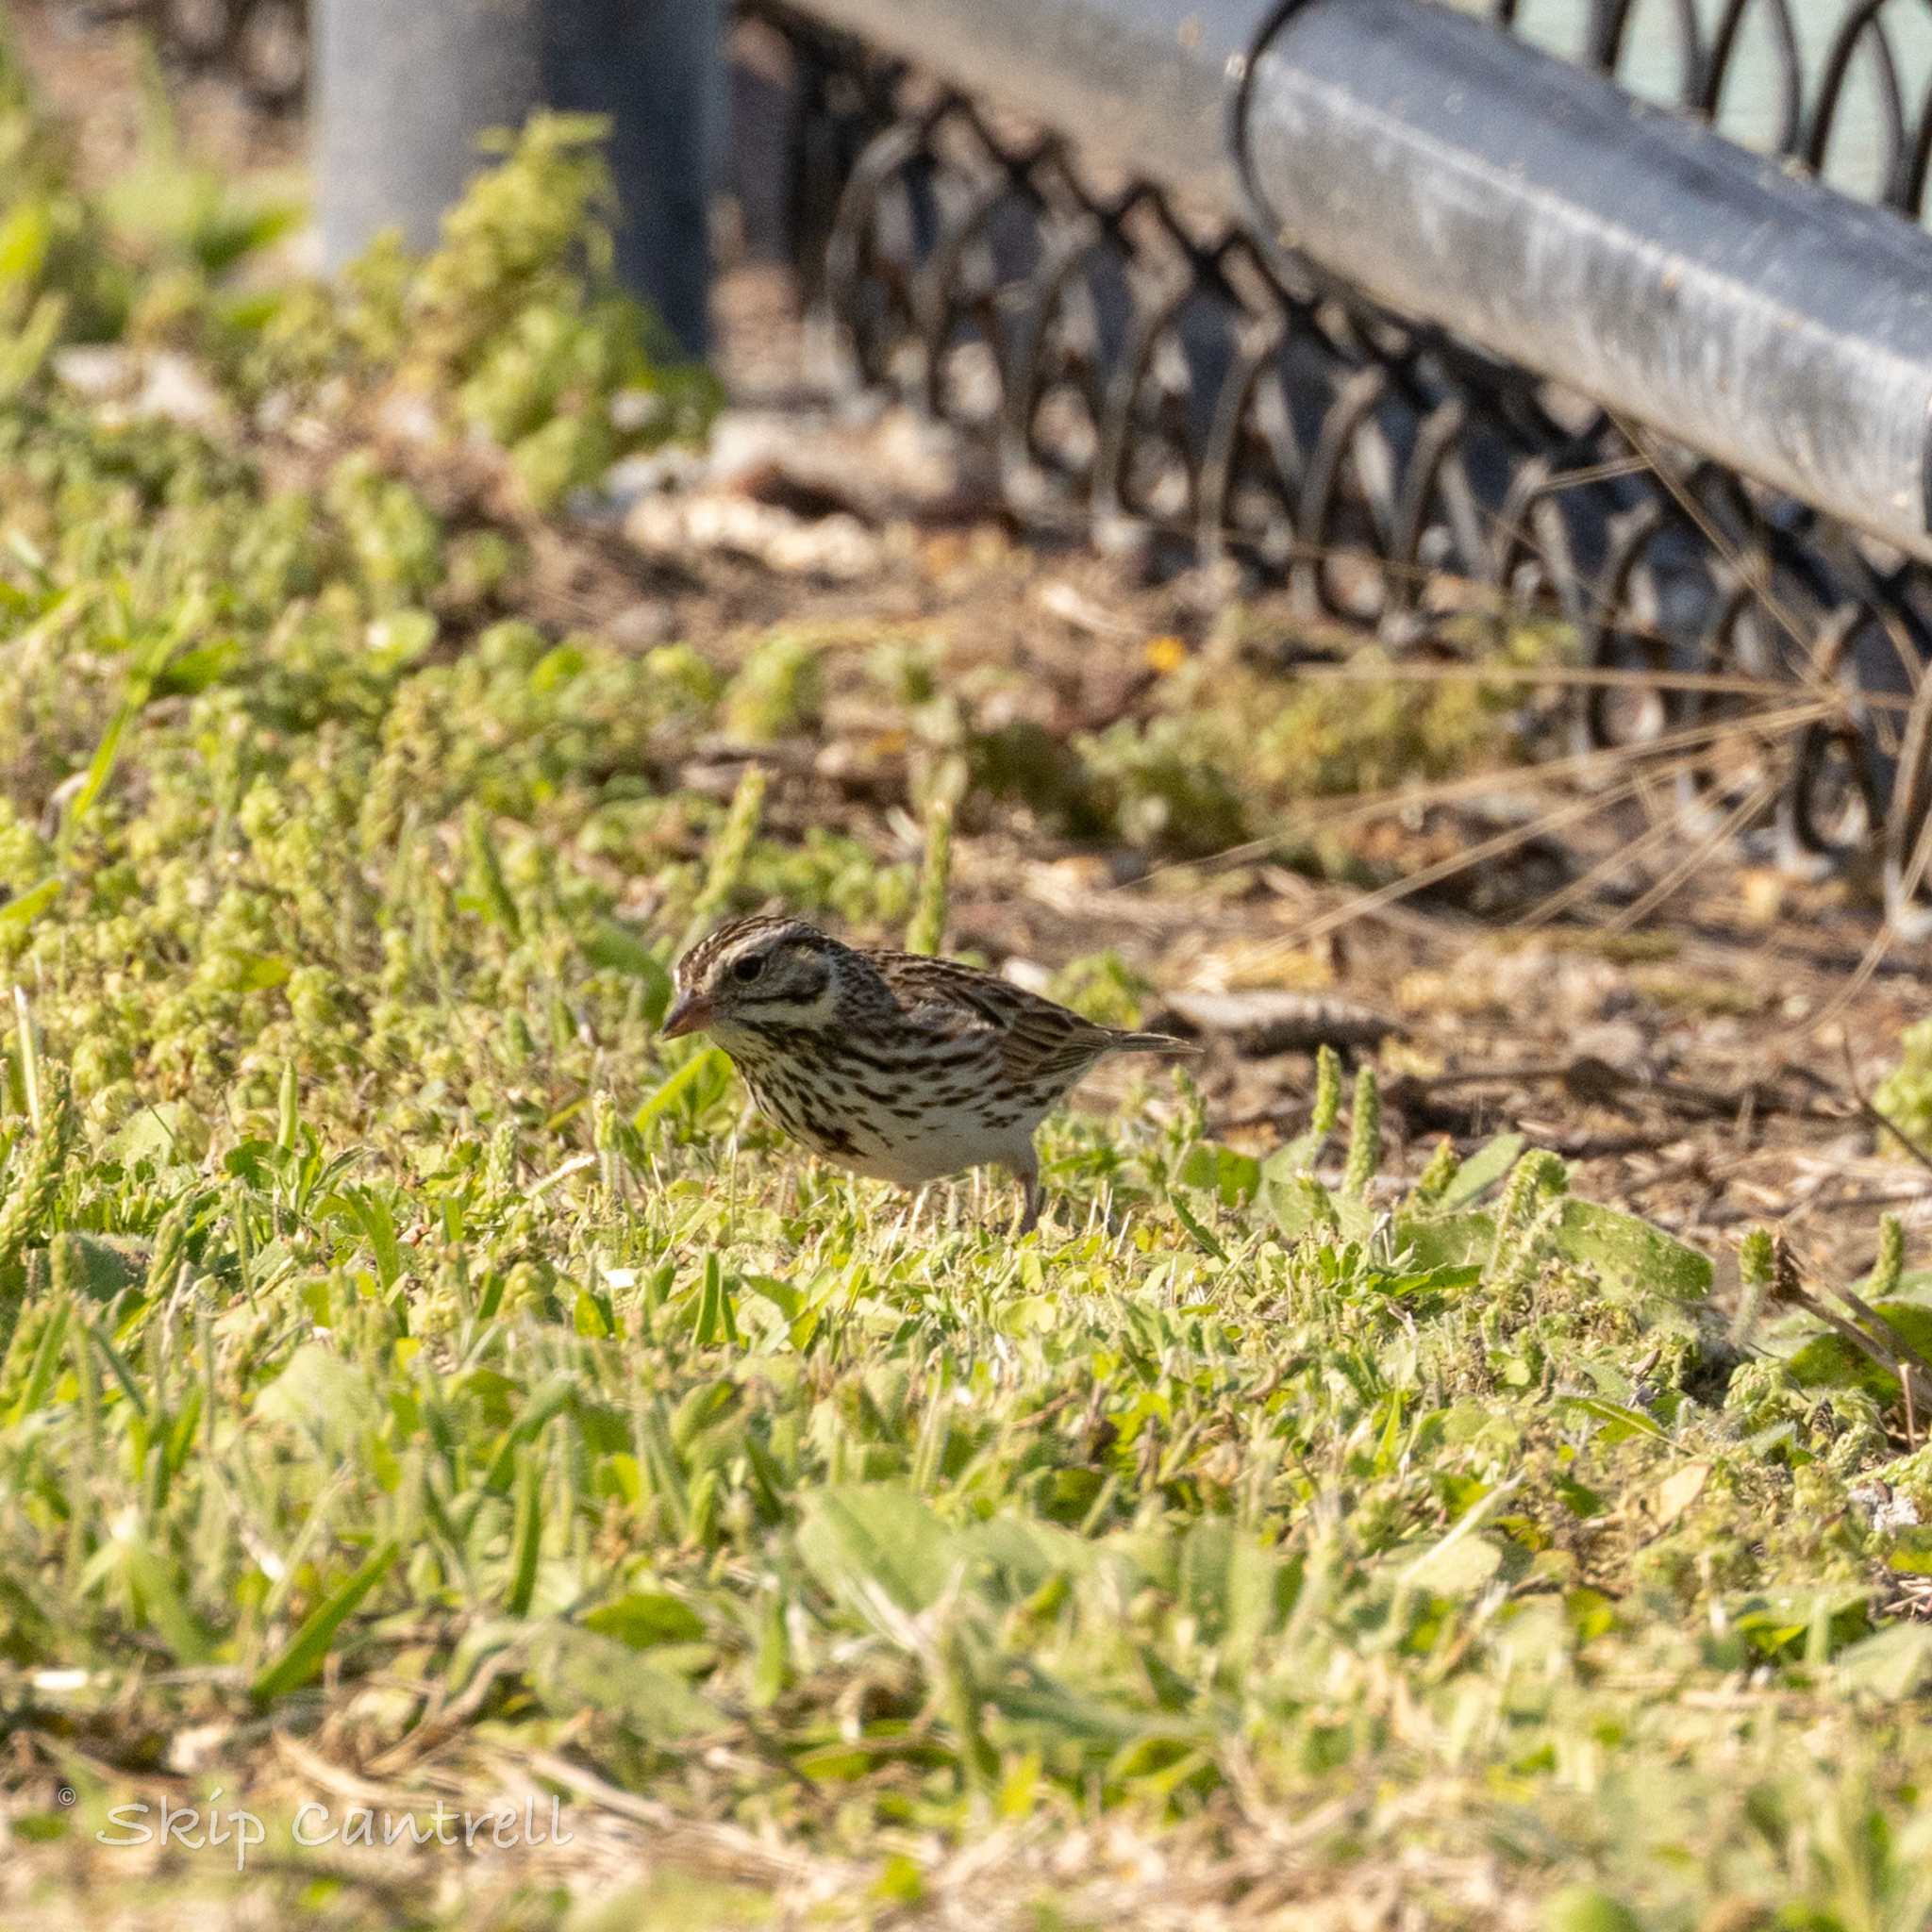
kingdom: Animalia
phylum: Chordata
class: Aves
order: Passeriformes
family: Passerellidae
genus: Passerculus
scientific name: Passerculus sandwichensis
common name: Savannah sparrow
